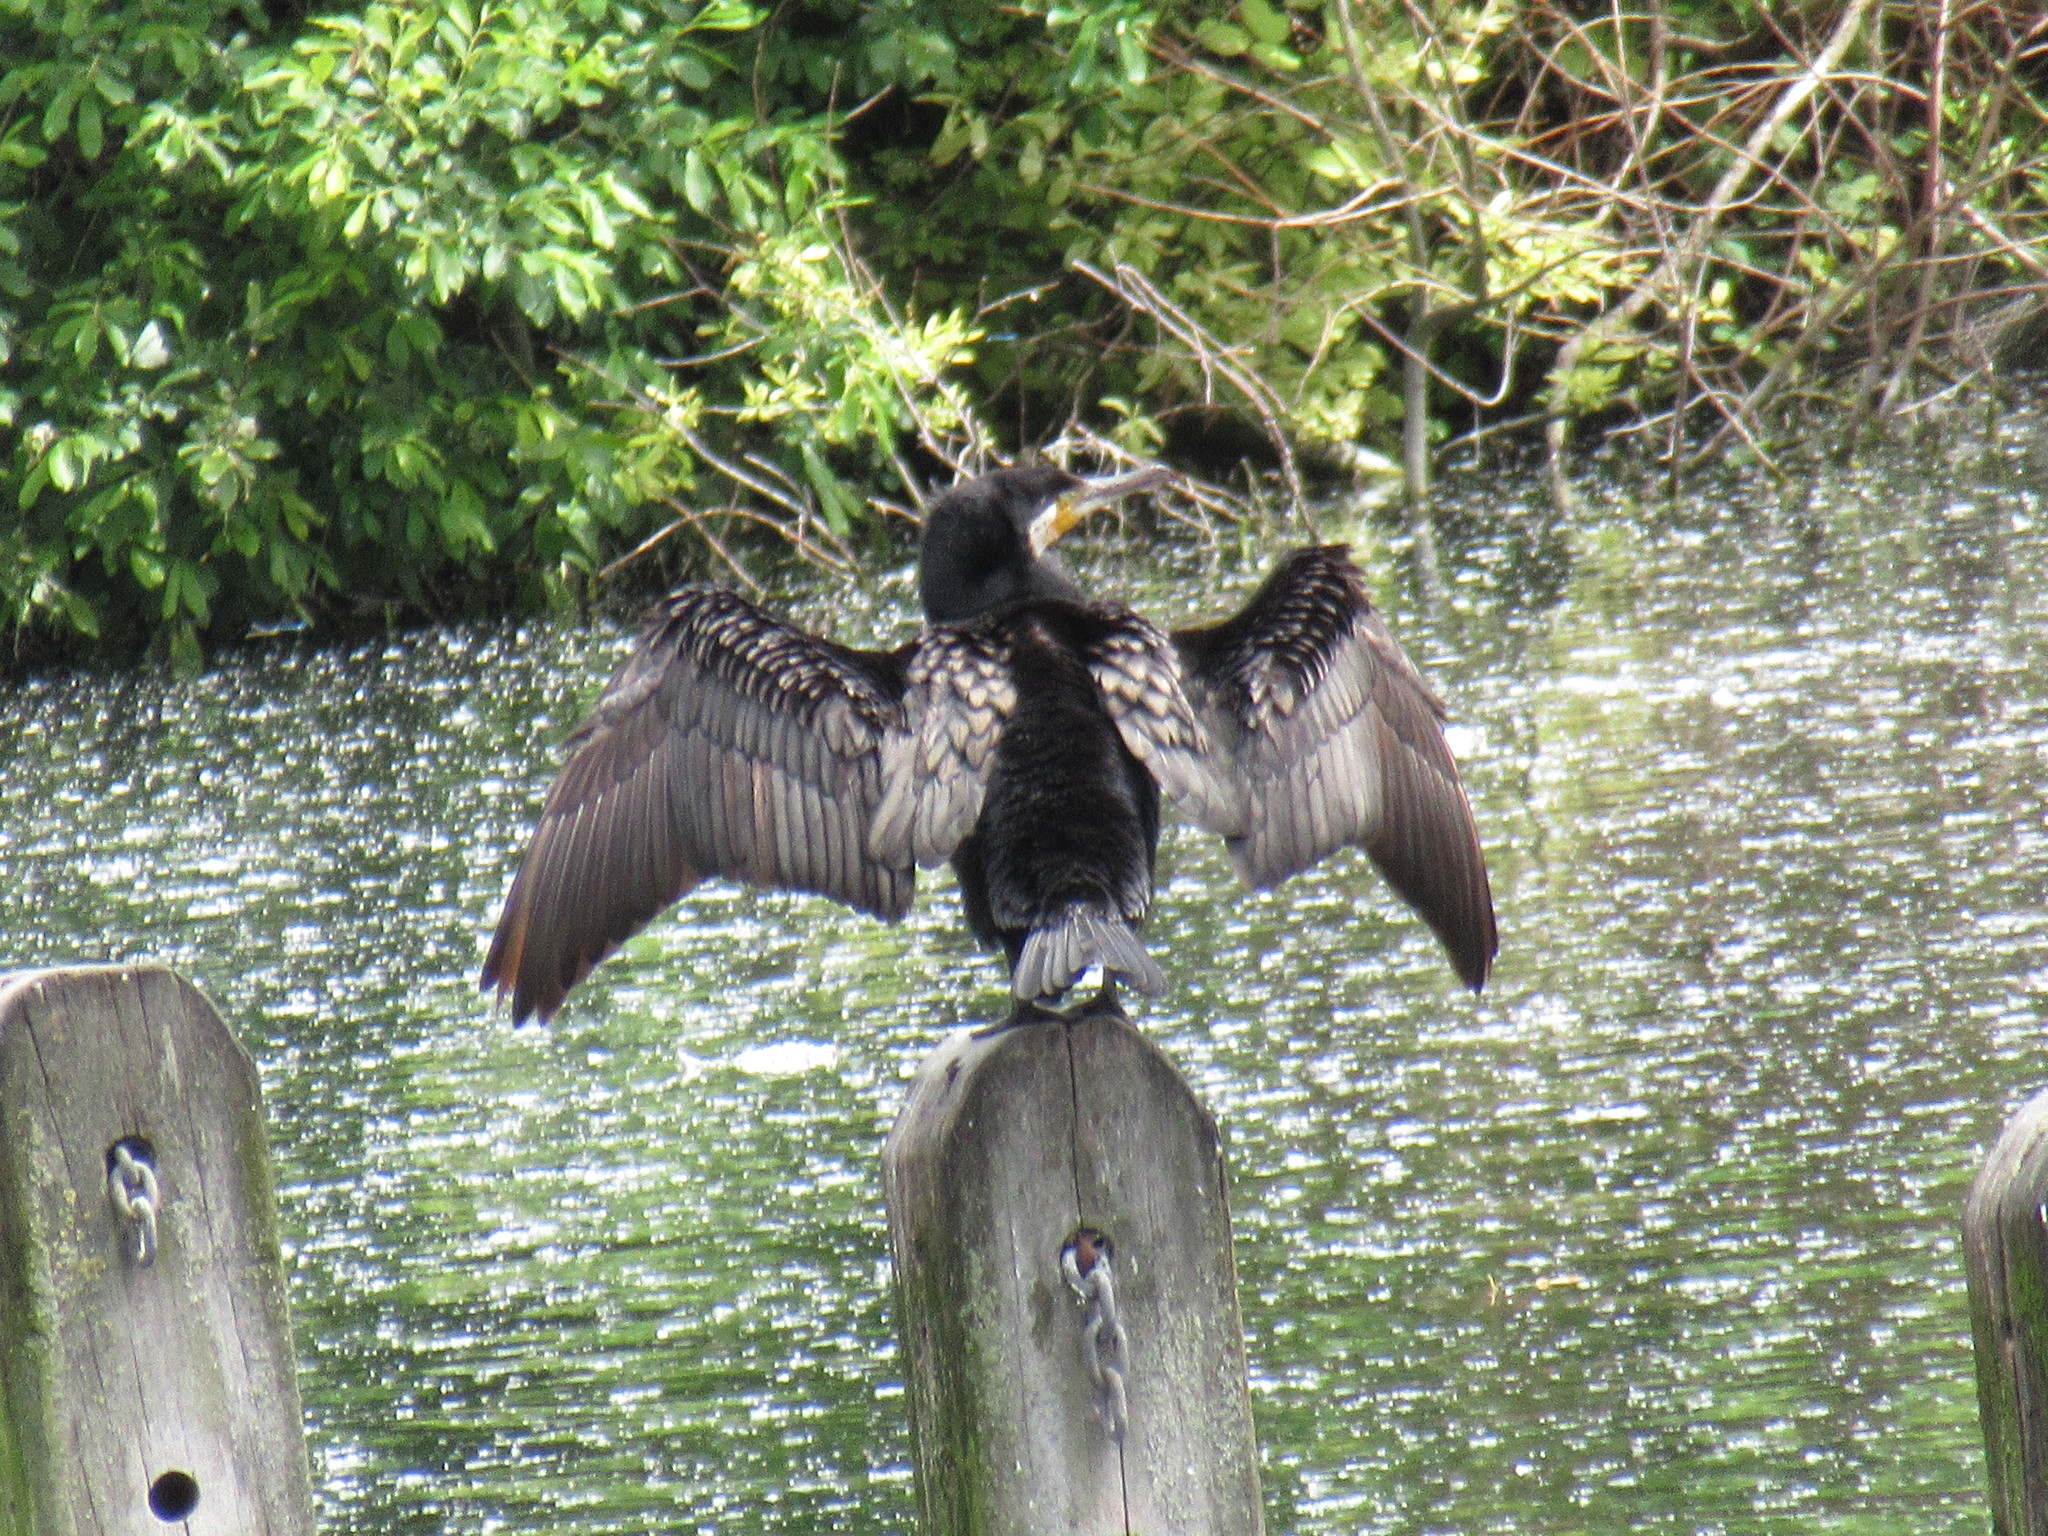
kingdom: Animalia
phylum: Chordata
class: Aves
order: Suliformes
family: Phalacrocoracidae
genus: Phalacrocorax
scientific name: Phalacrocorax carbo
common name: Great cormorant
